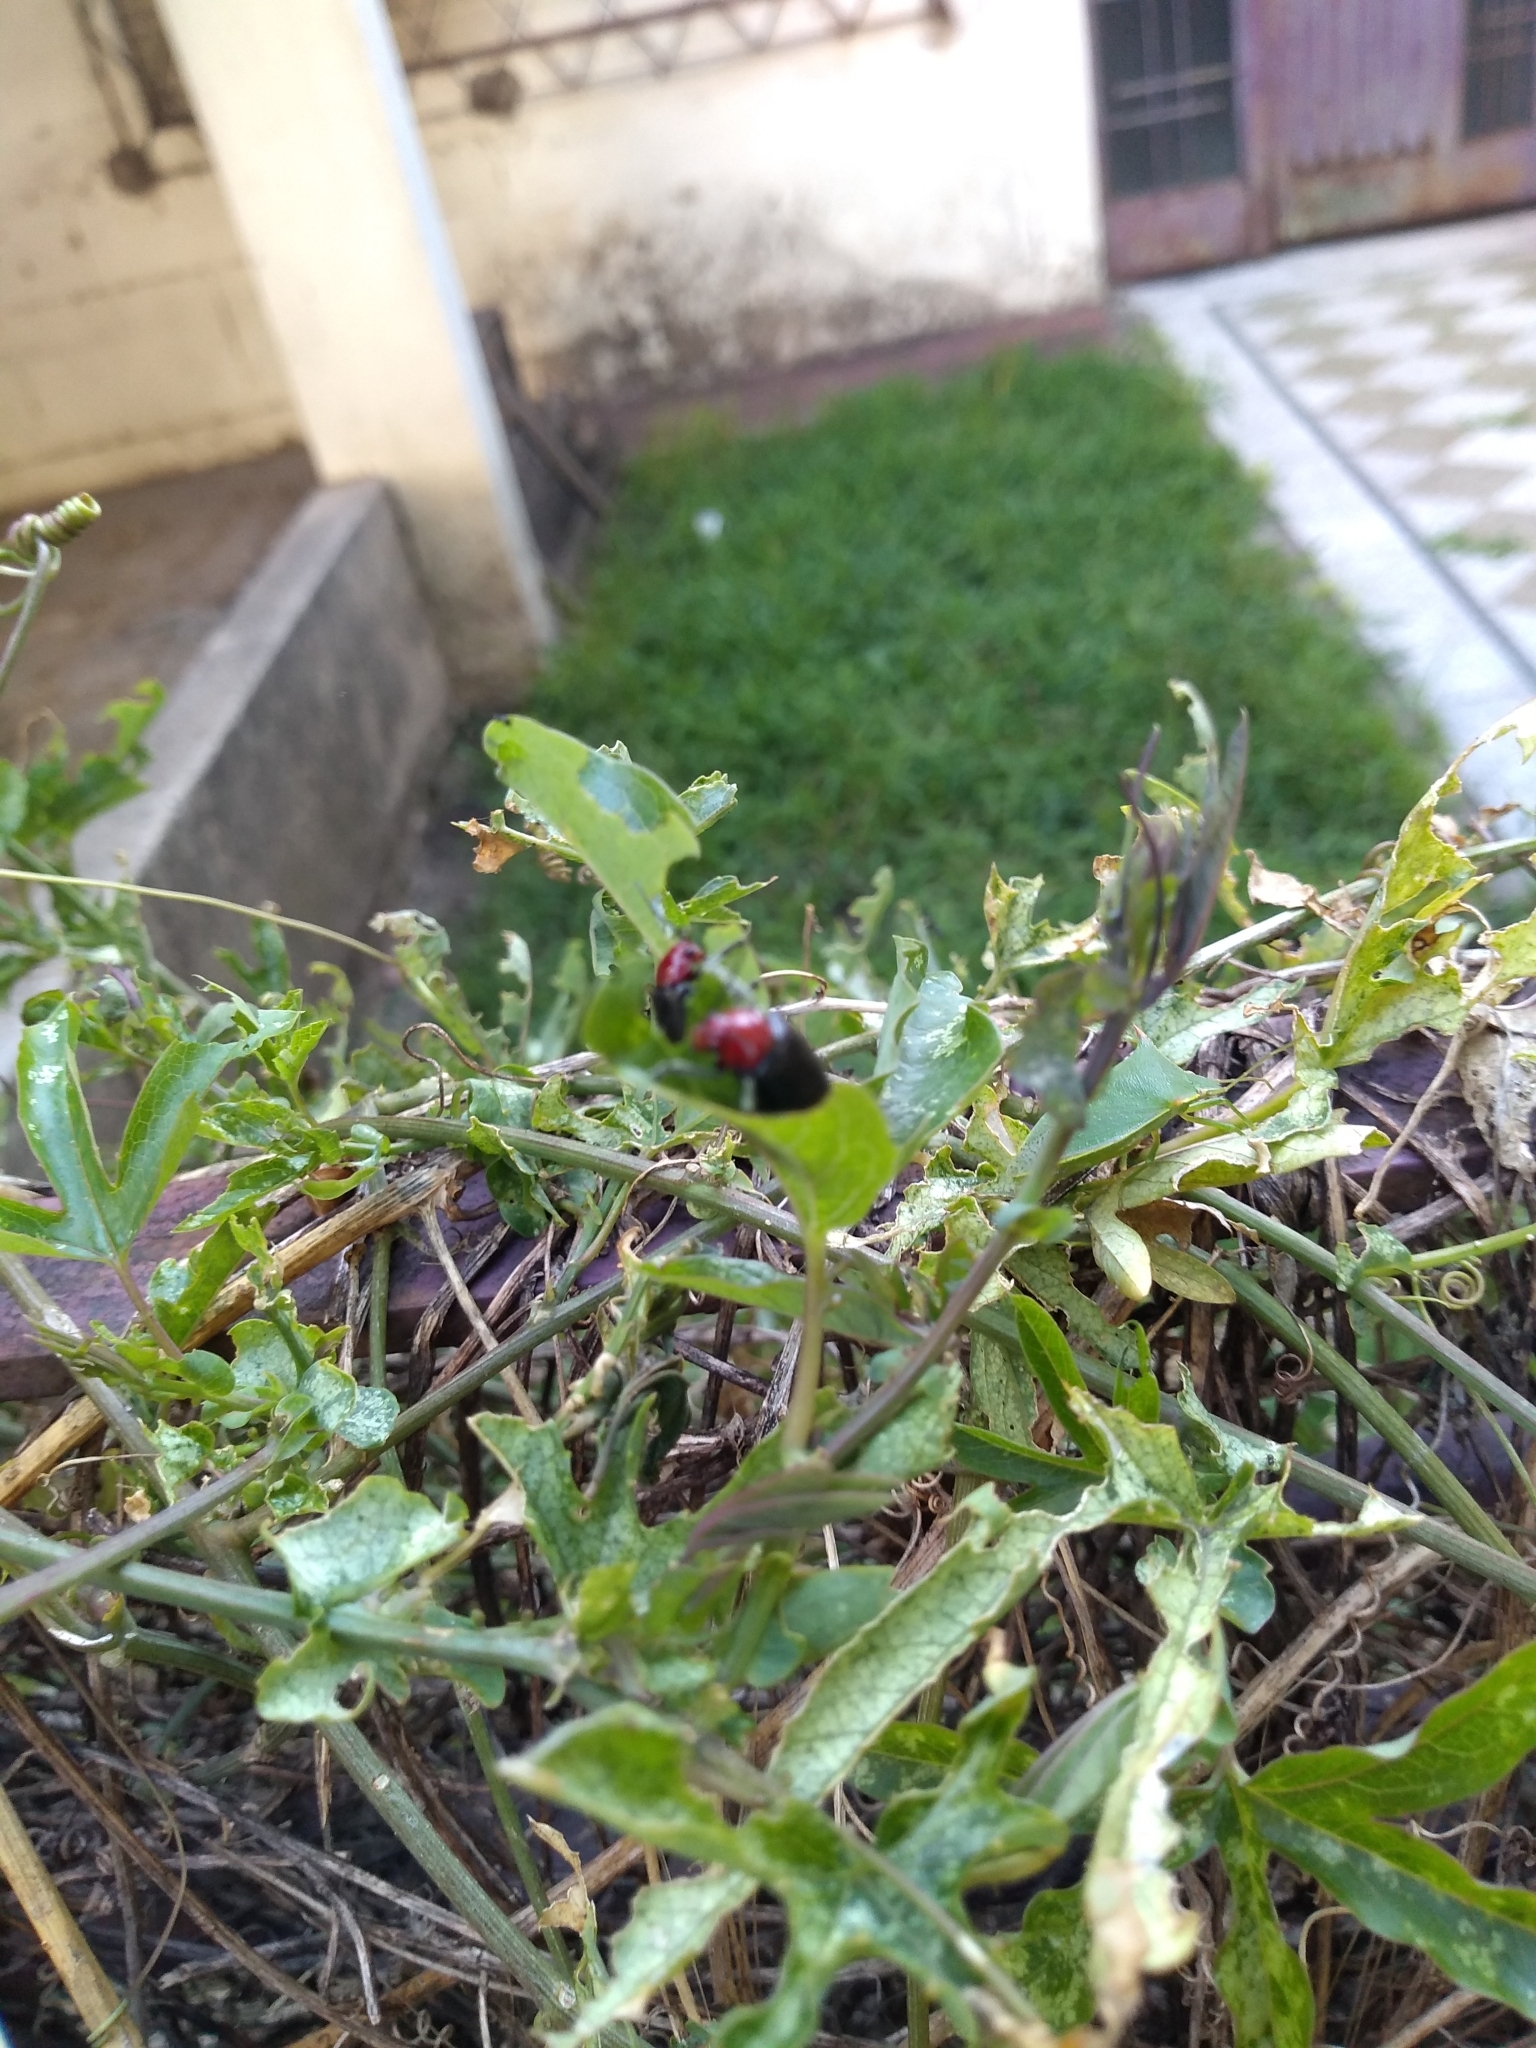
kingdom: Animalia
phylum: Arthropoda
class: Insecta
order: Coleoptera
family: Chrysomelidae
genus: Cacoscelis
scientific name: Cacoscelis
